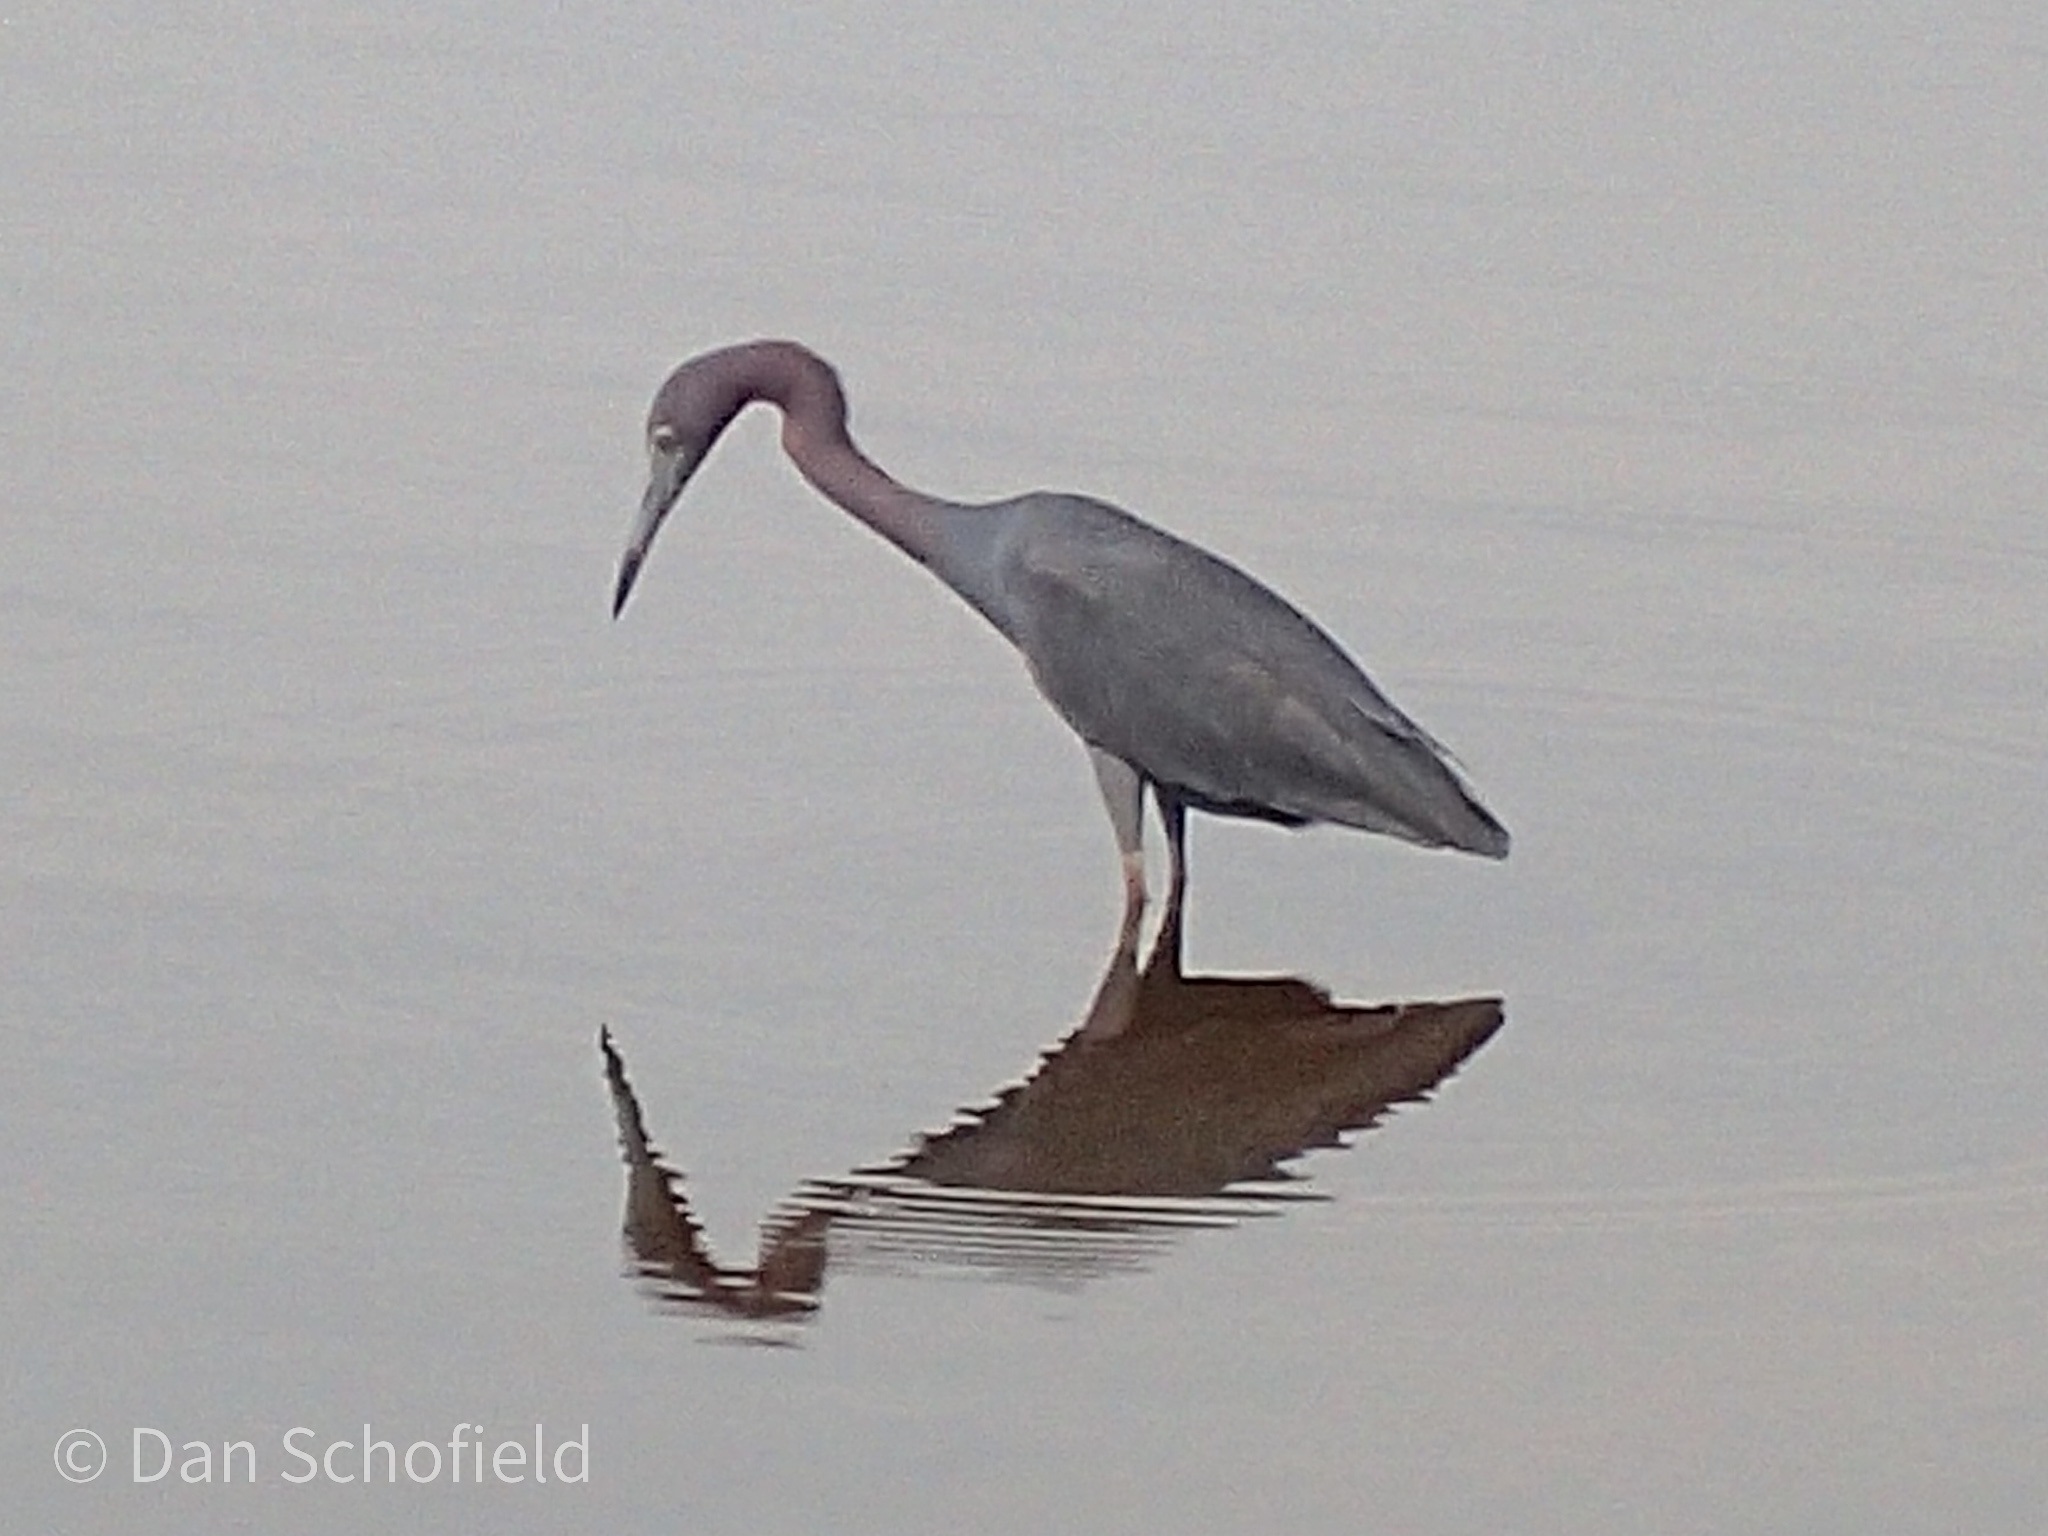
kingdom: Animalia
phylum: Chordata
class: Aves
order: Pelecaniformes
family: Ardeidae
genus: Egretta
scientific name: Egretta caerulea
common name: Little blue heron
